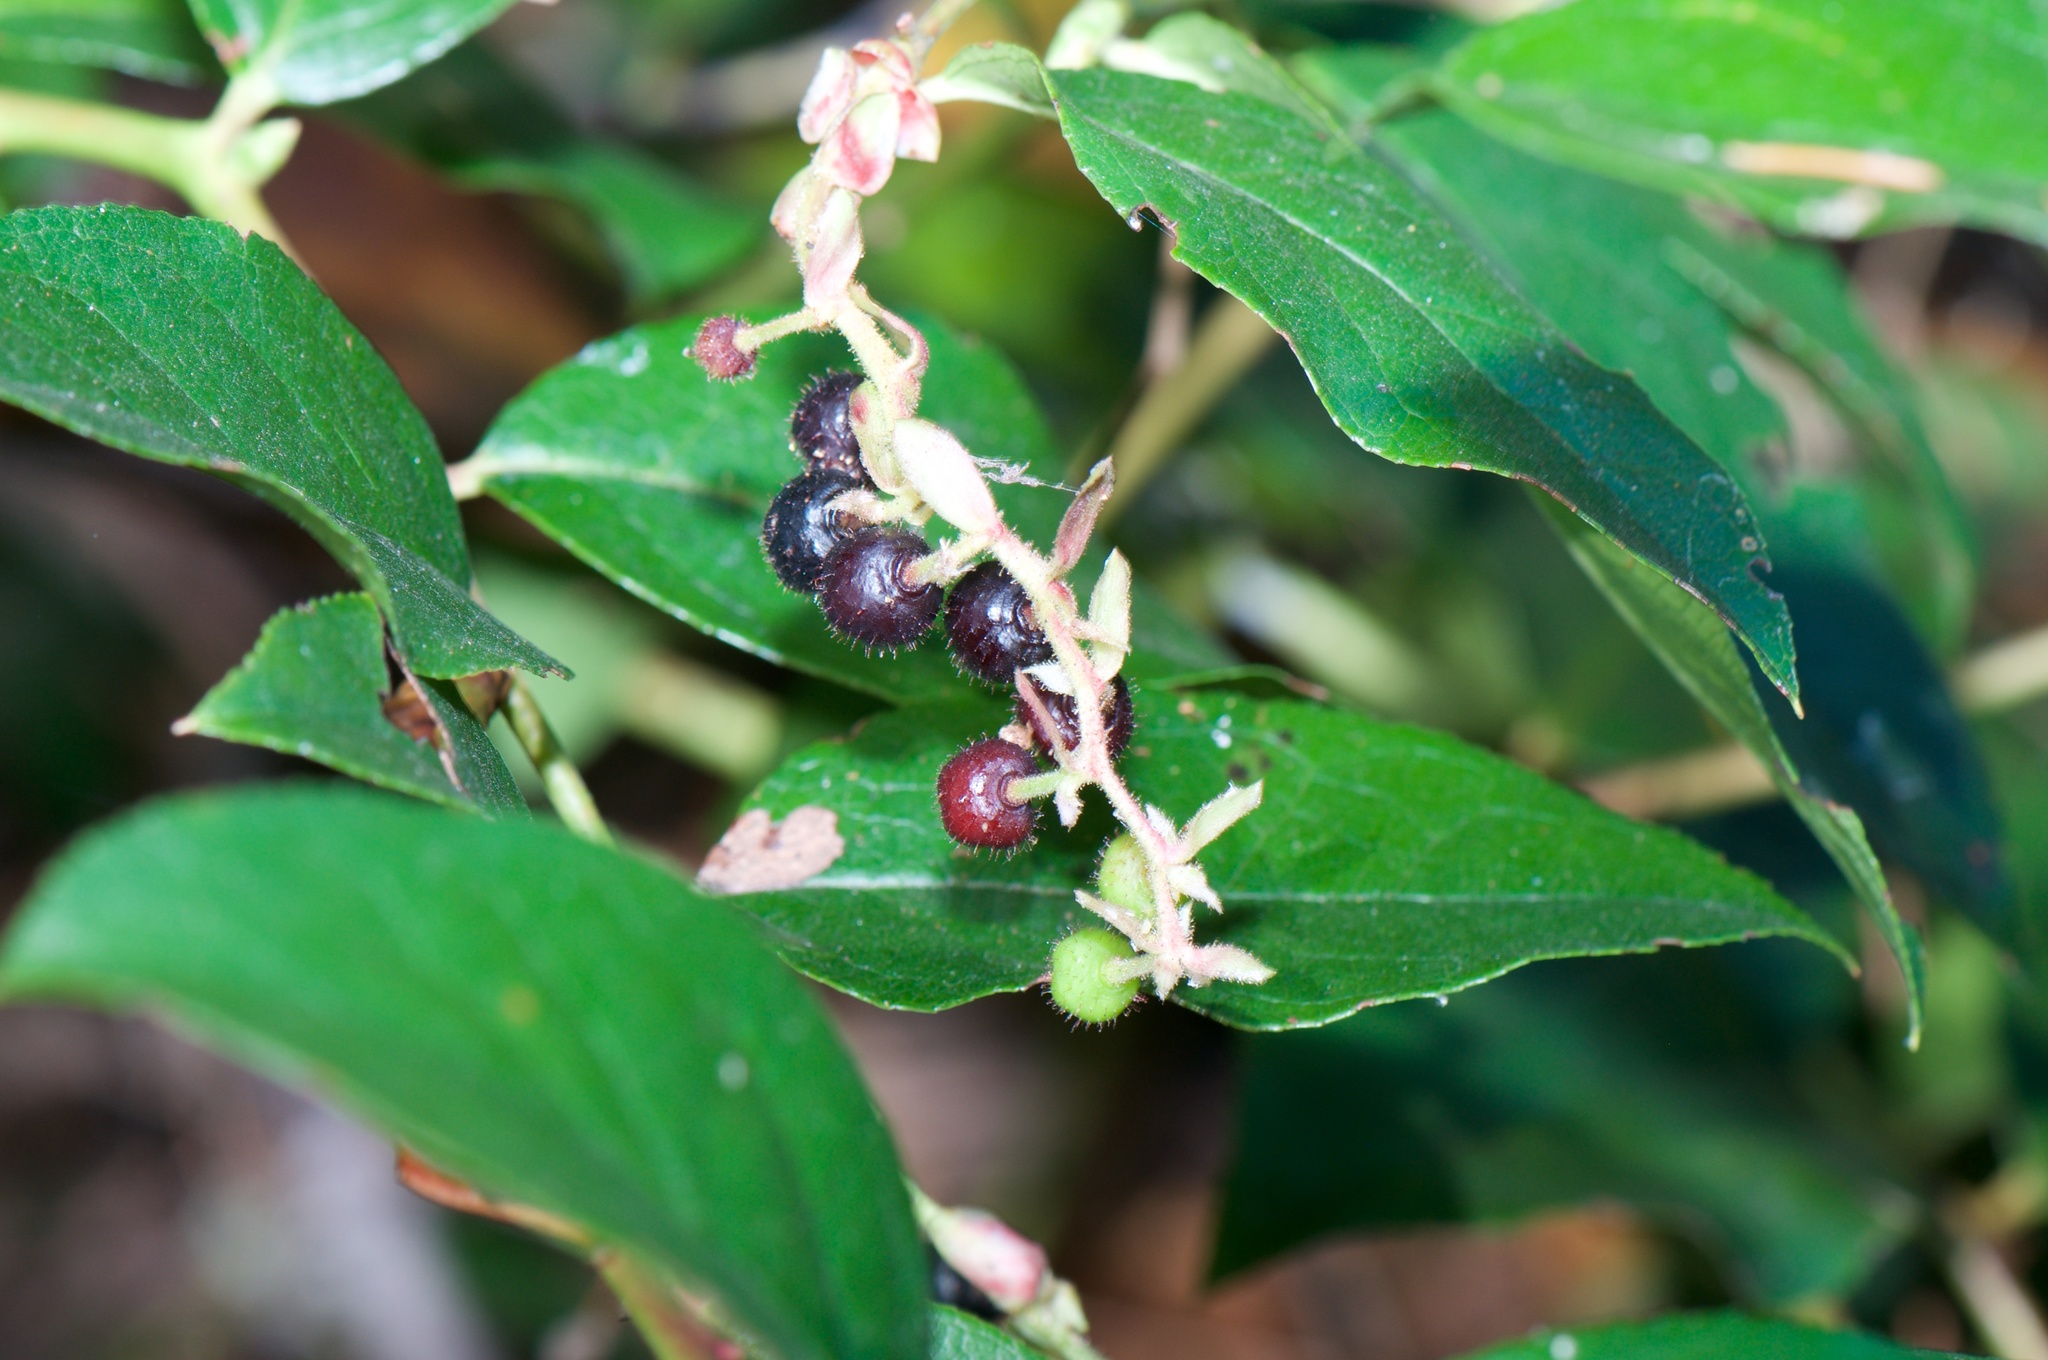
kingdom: Plantae
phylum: Tracheophyta
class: Magnoliopsida
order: Ericales
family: Ericaceae
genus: Gaultheria
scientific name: Gaultheria shallon
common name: Shallon
